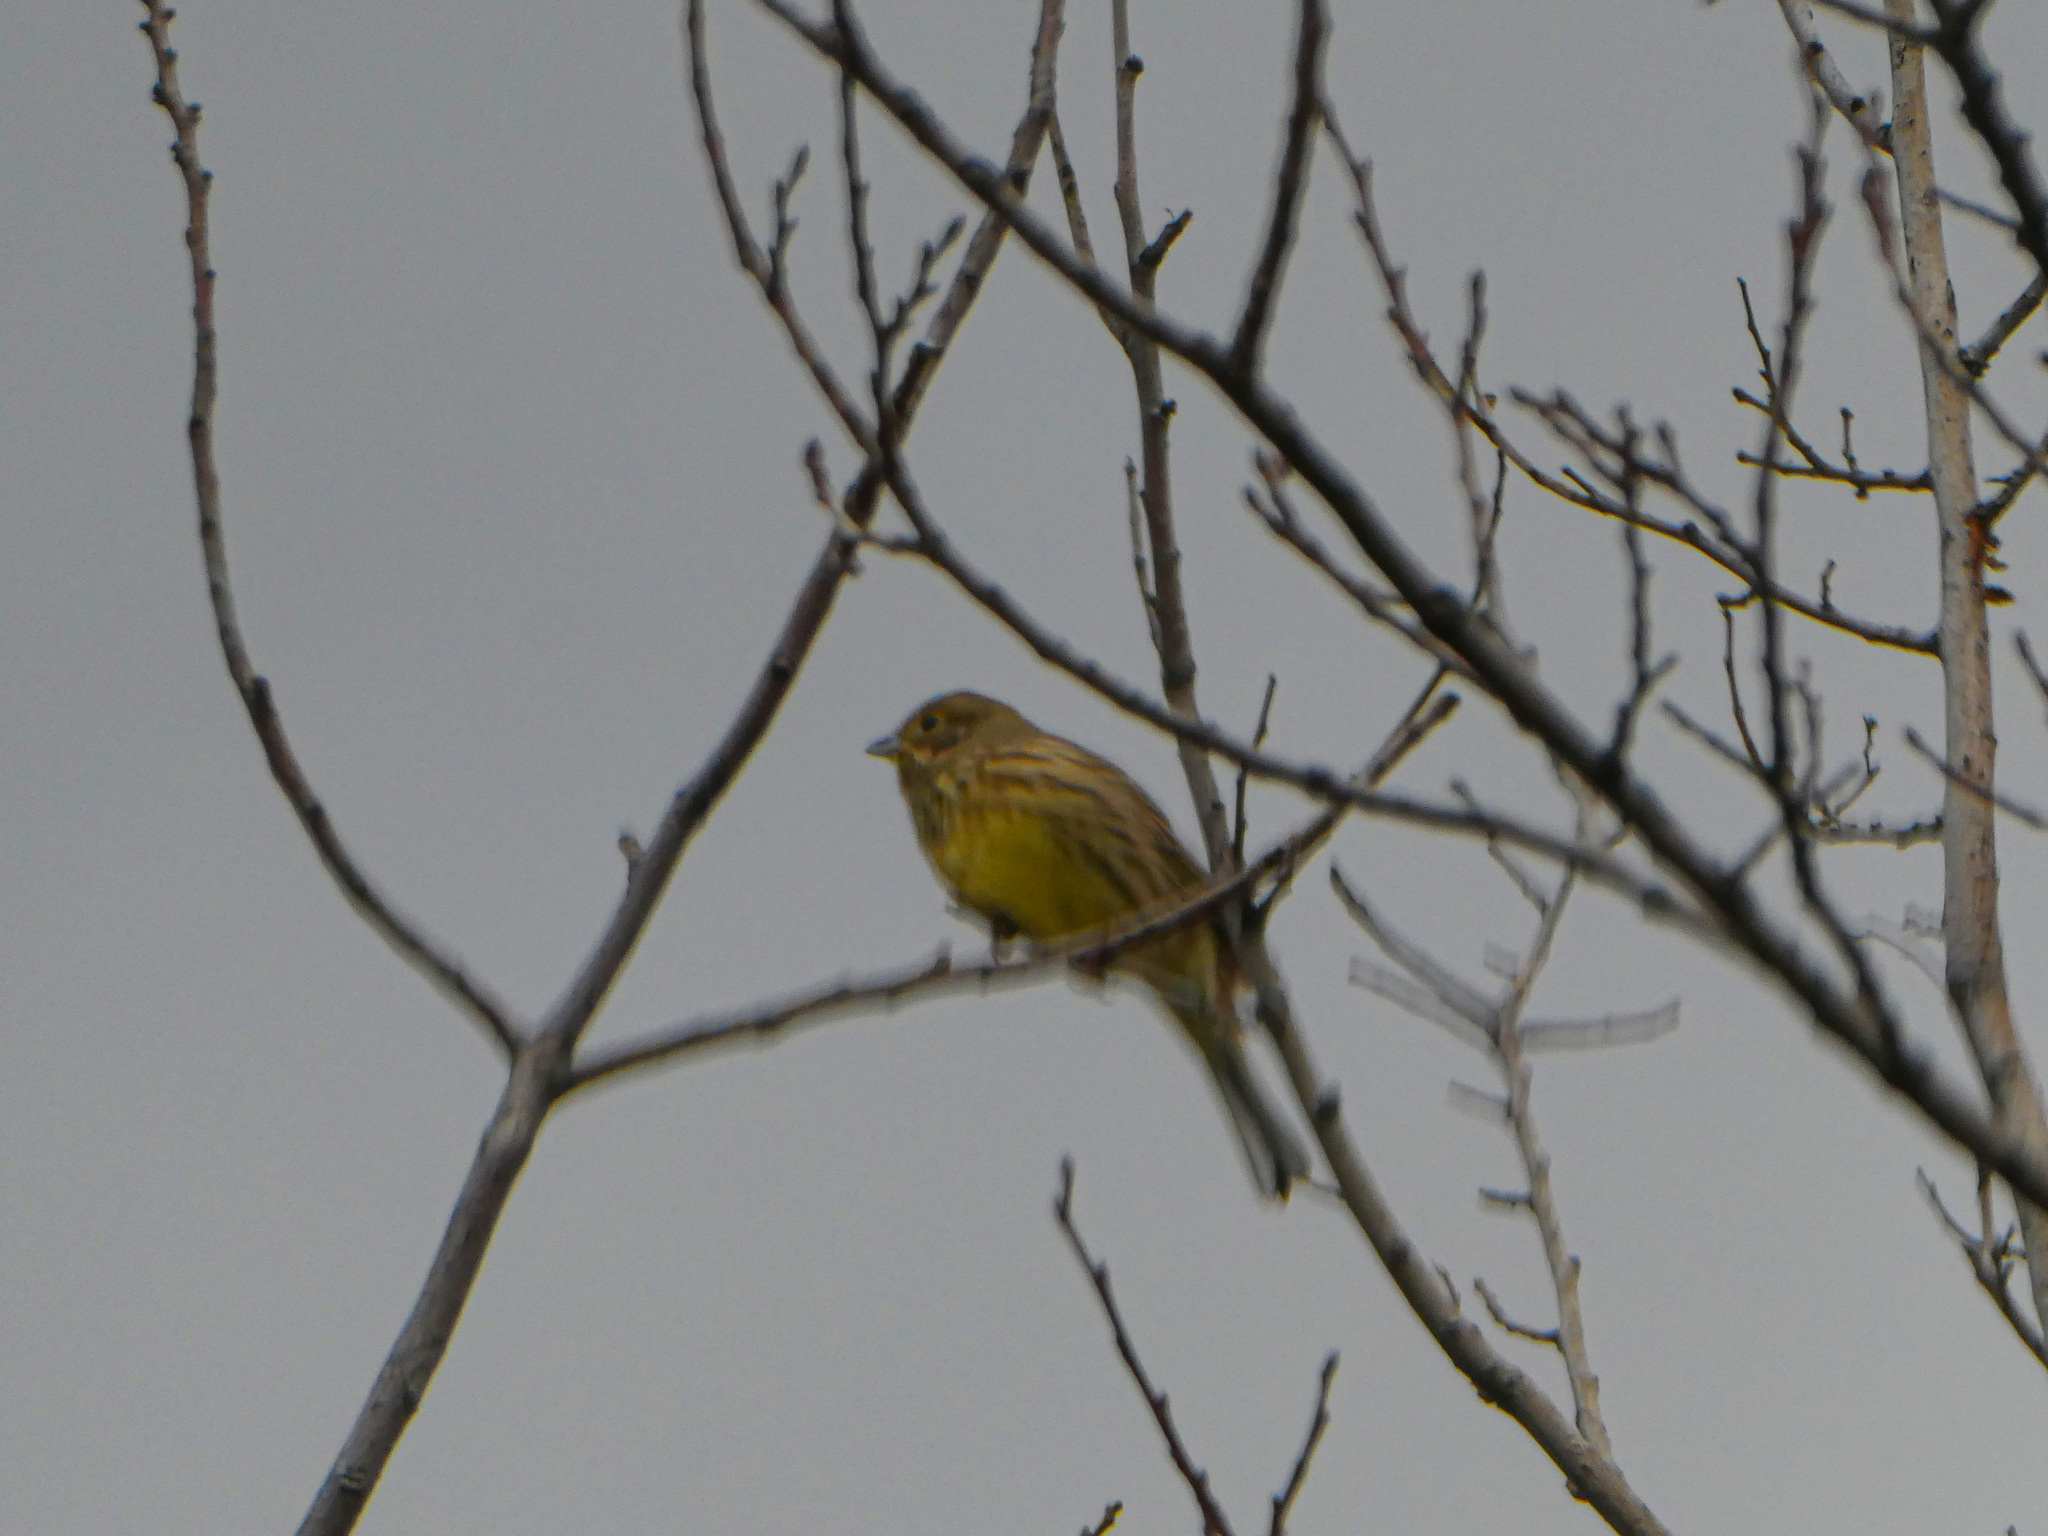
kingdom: Animalia
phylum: Chordata
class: Aves
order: Passeriformes
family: Emberizidae
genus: Emberiza
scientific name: Emberiza citrinella
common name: Yellowhammer
